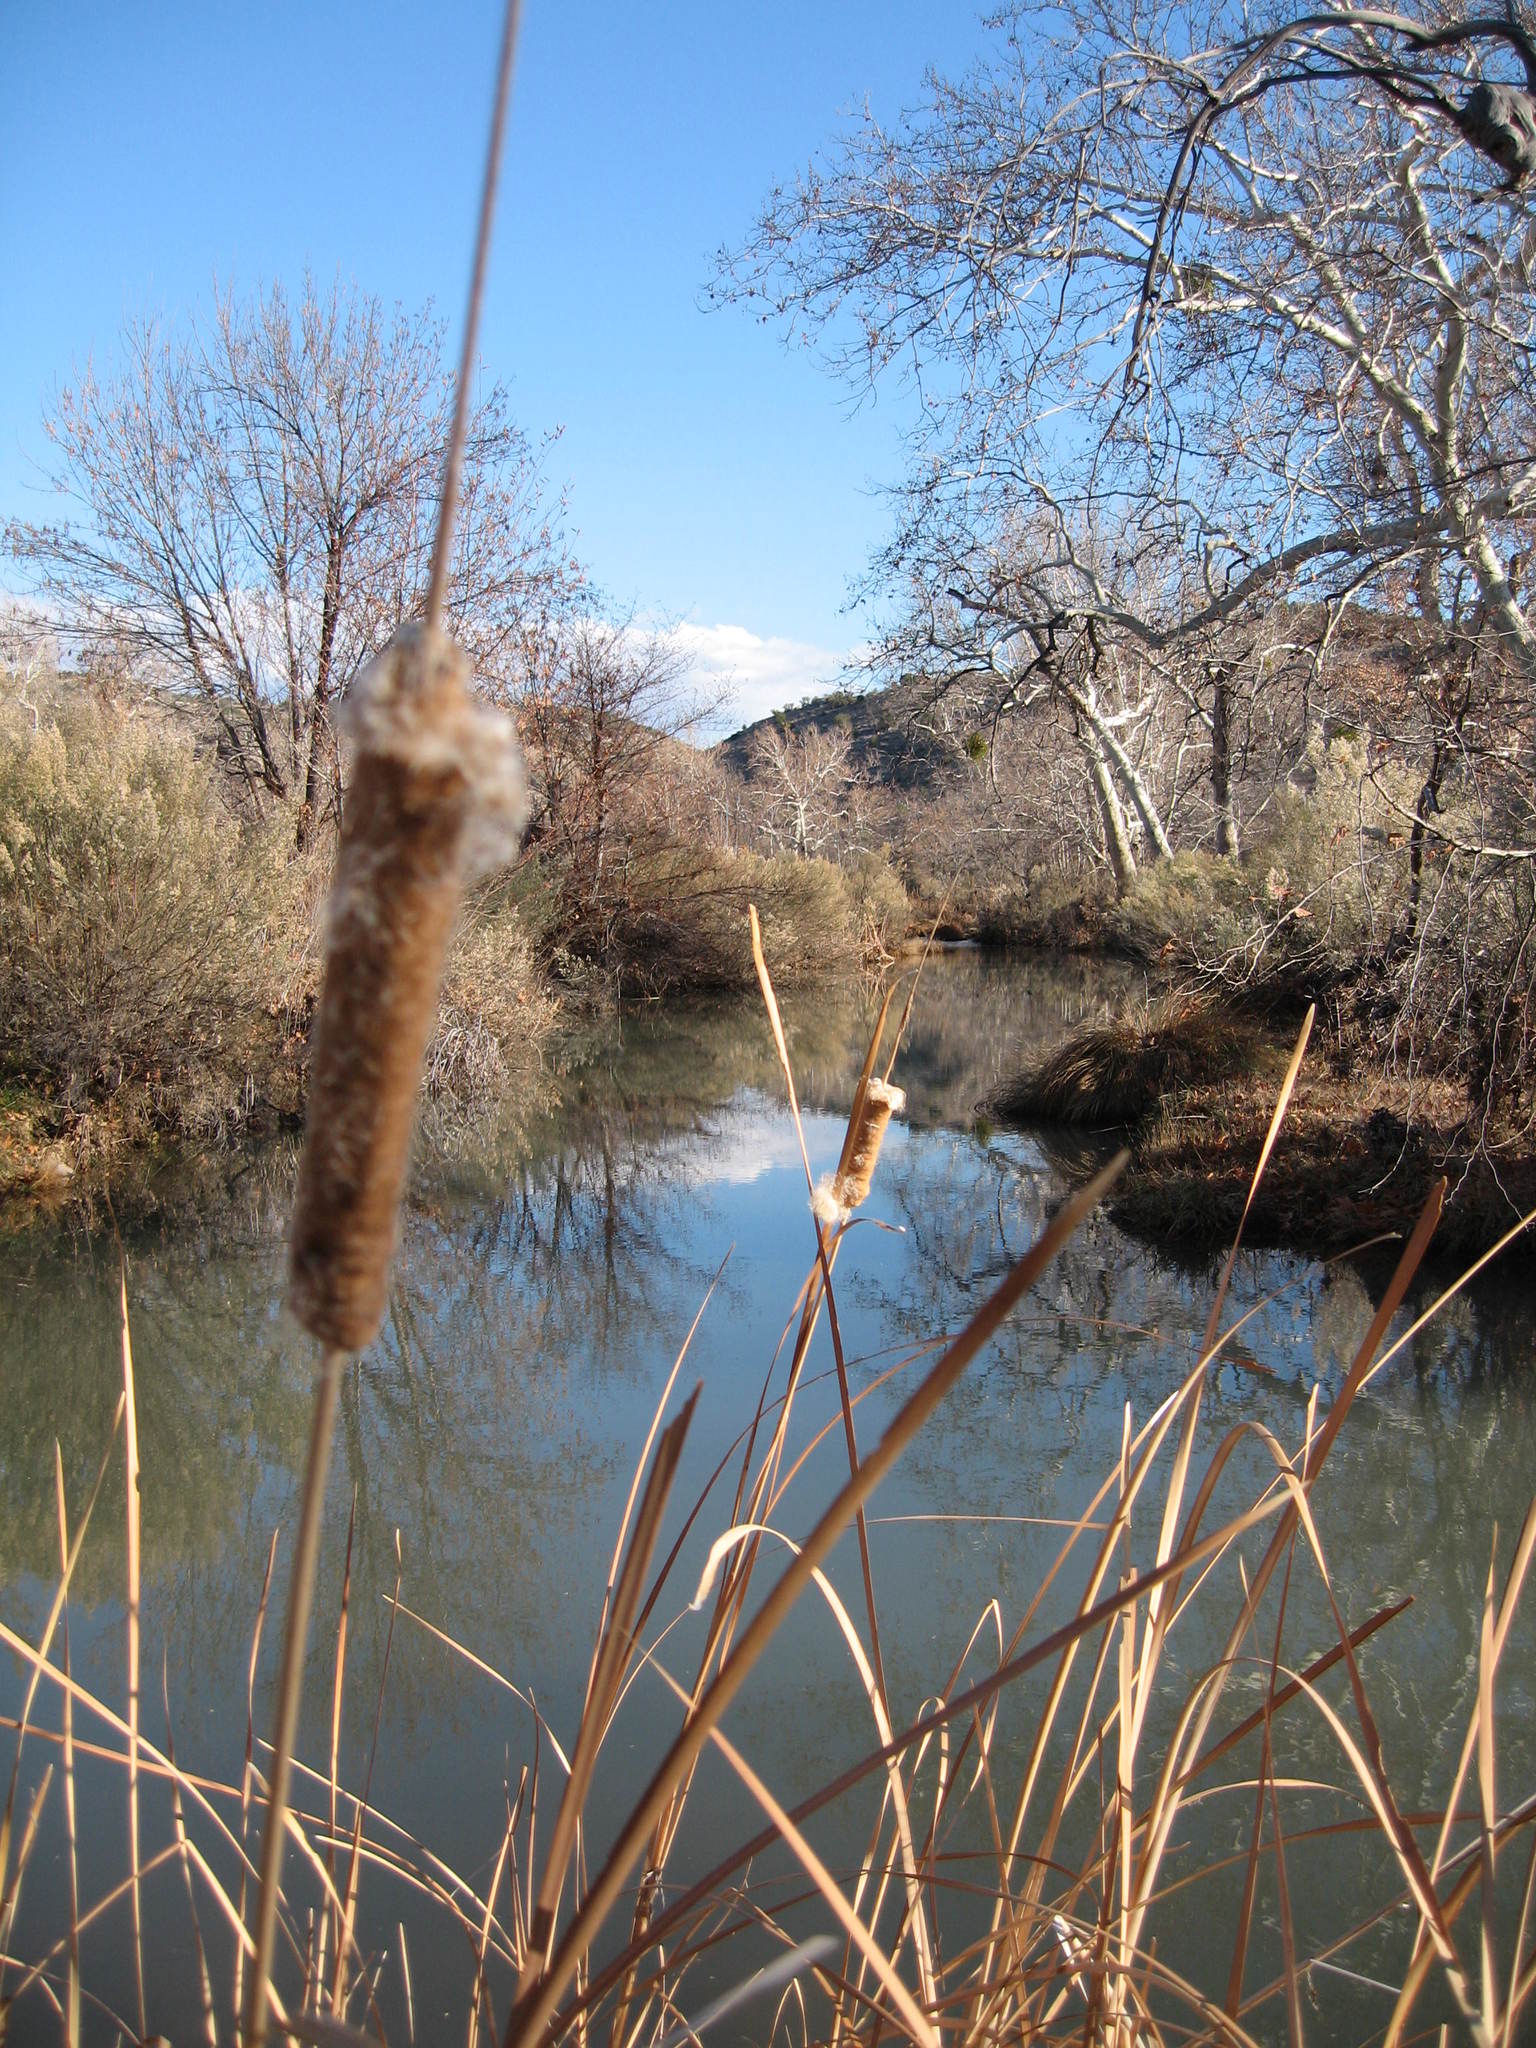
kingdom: Plantae
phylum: Tracheophyta
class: Liliopsida
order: Poales
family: Typhaceae
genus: Typha
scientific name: Typha latifolia
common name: Broadleaf cattail
